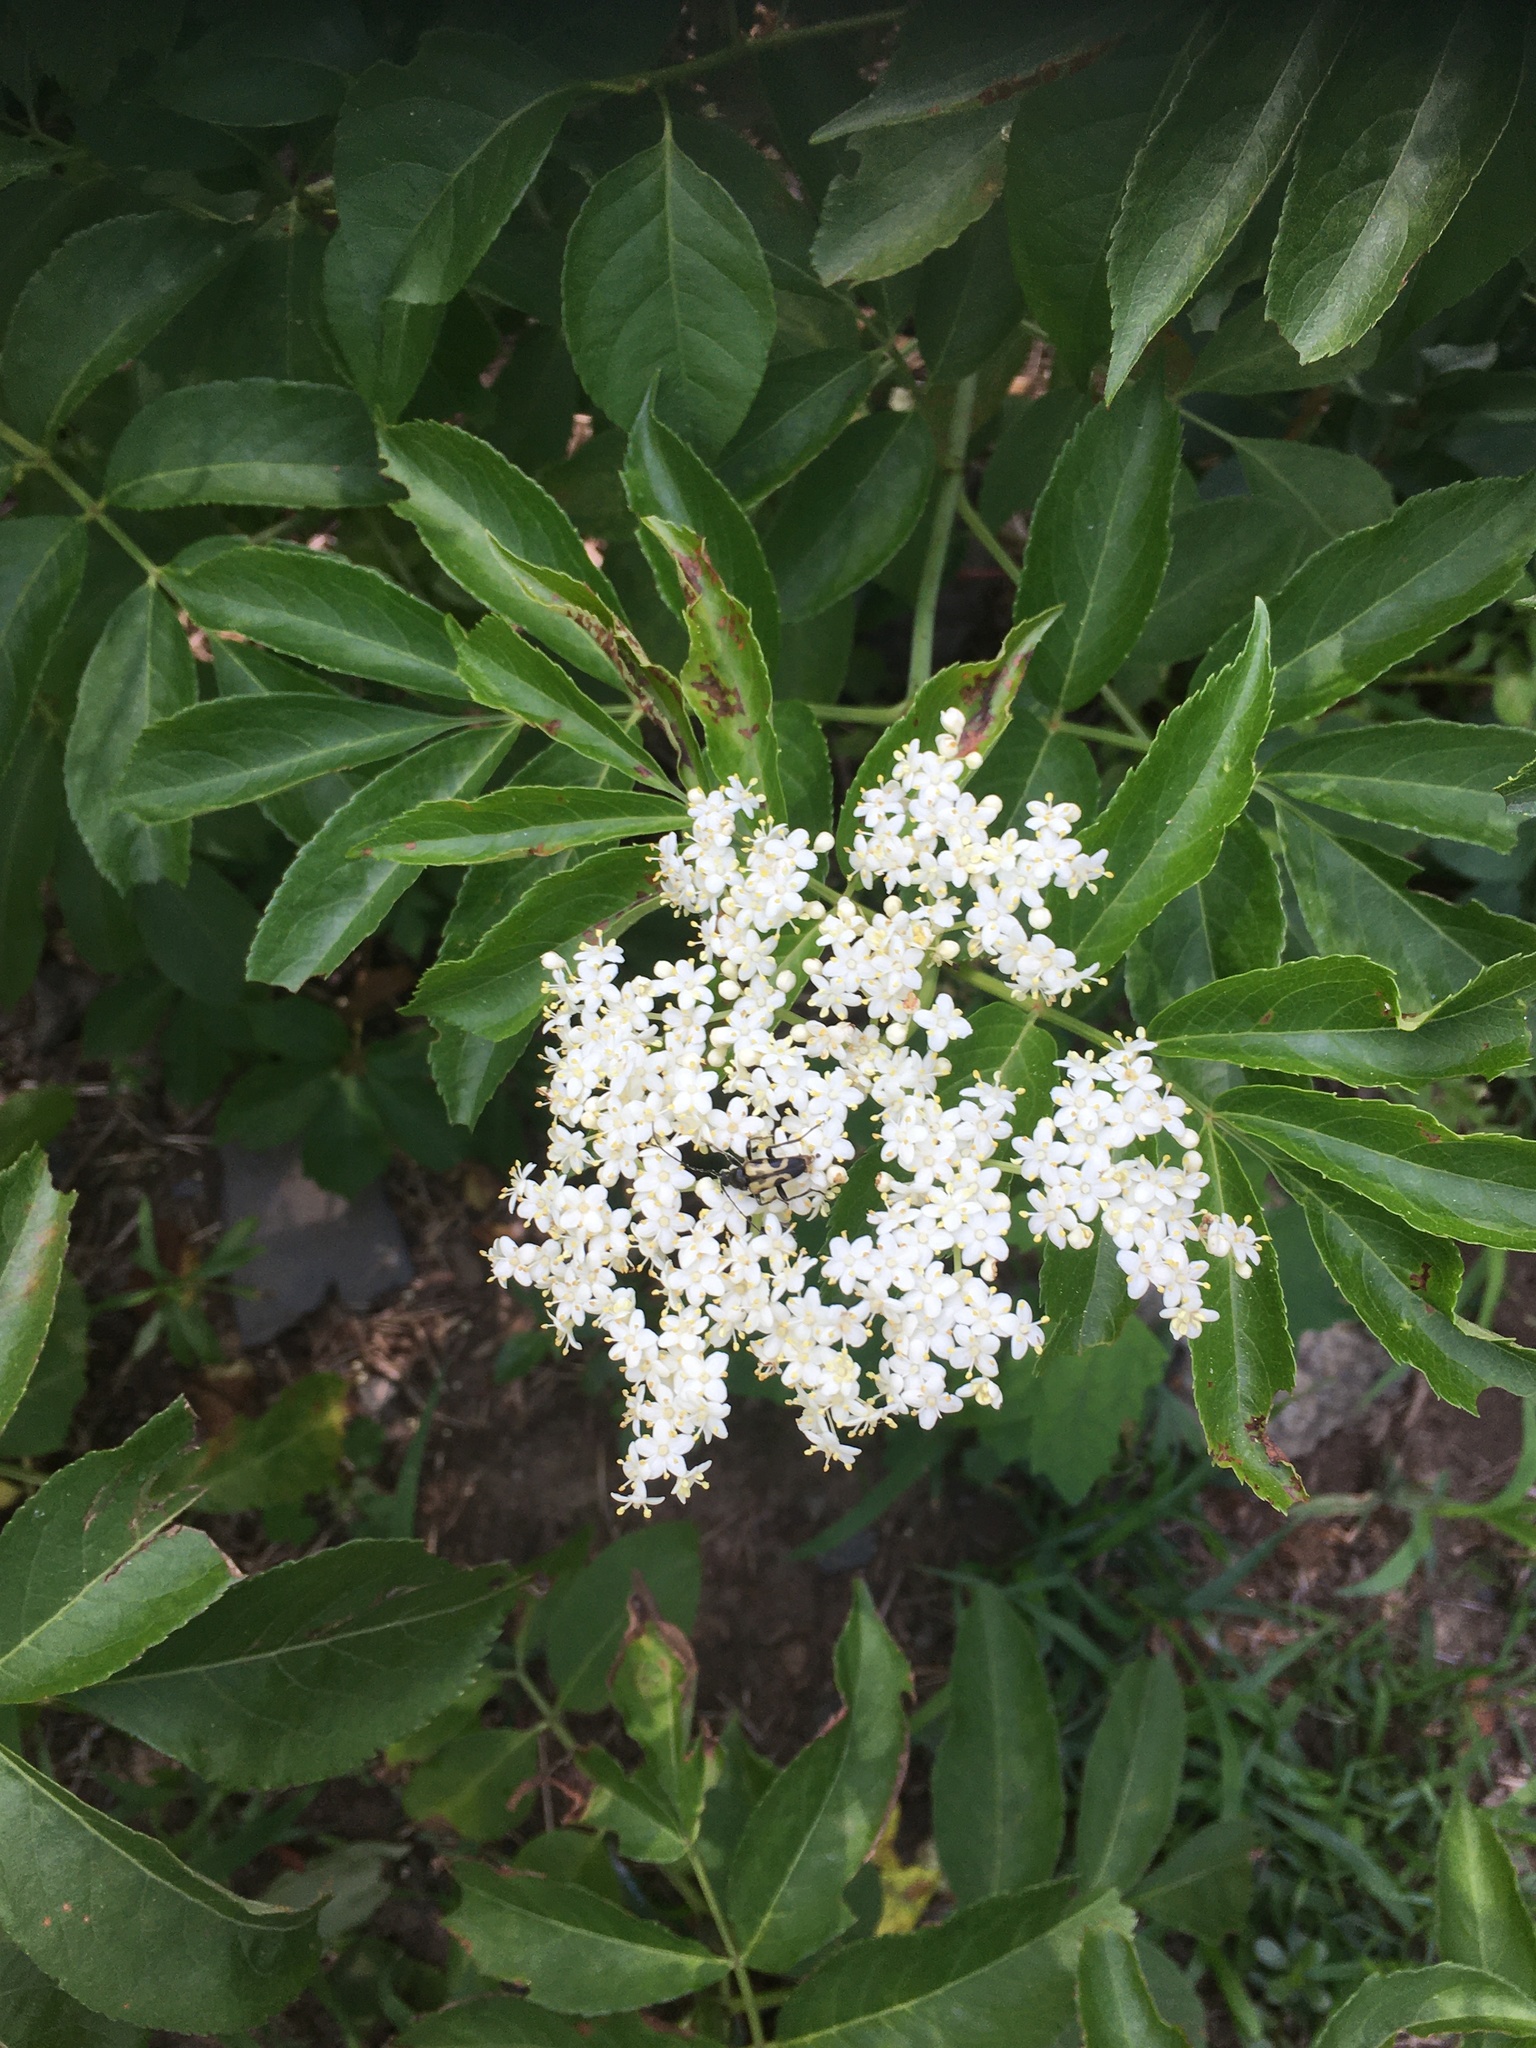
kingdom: Plantae
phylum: Tracheophyta
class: Magnoliopsida
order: Dipsacales
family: Viburnaceae
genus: Sambucus
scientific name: Sambucus canadensis
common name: American elder
